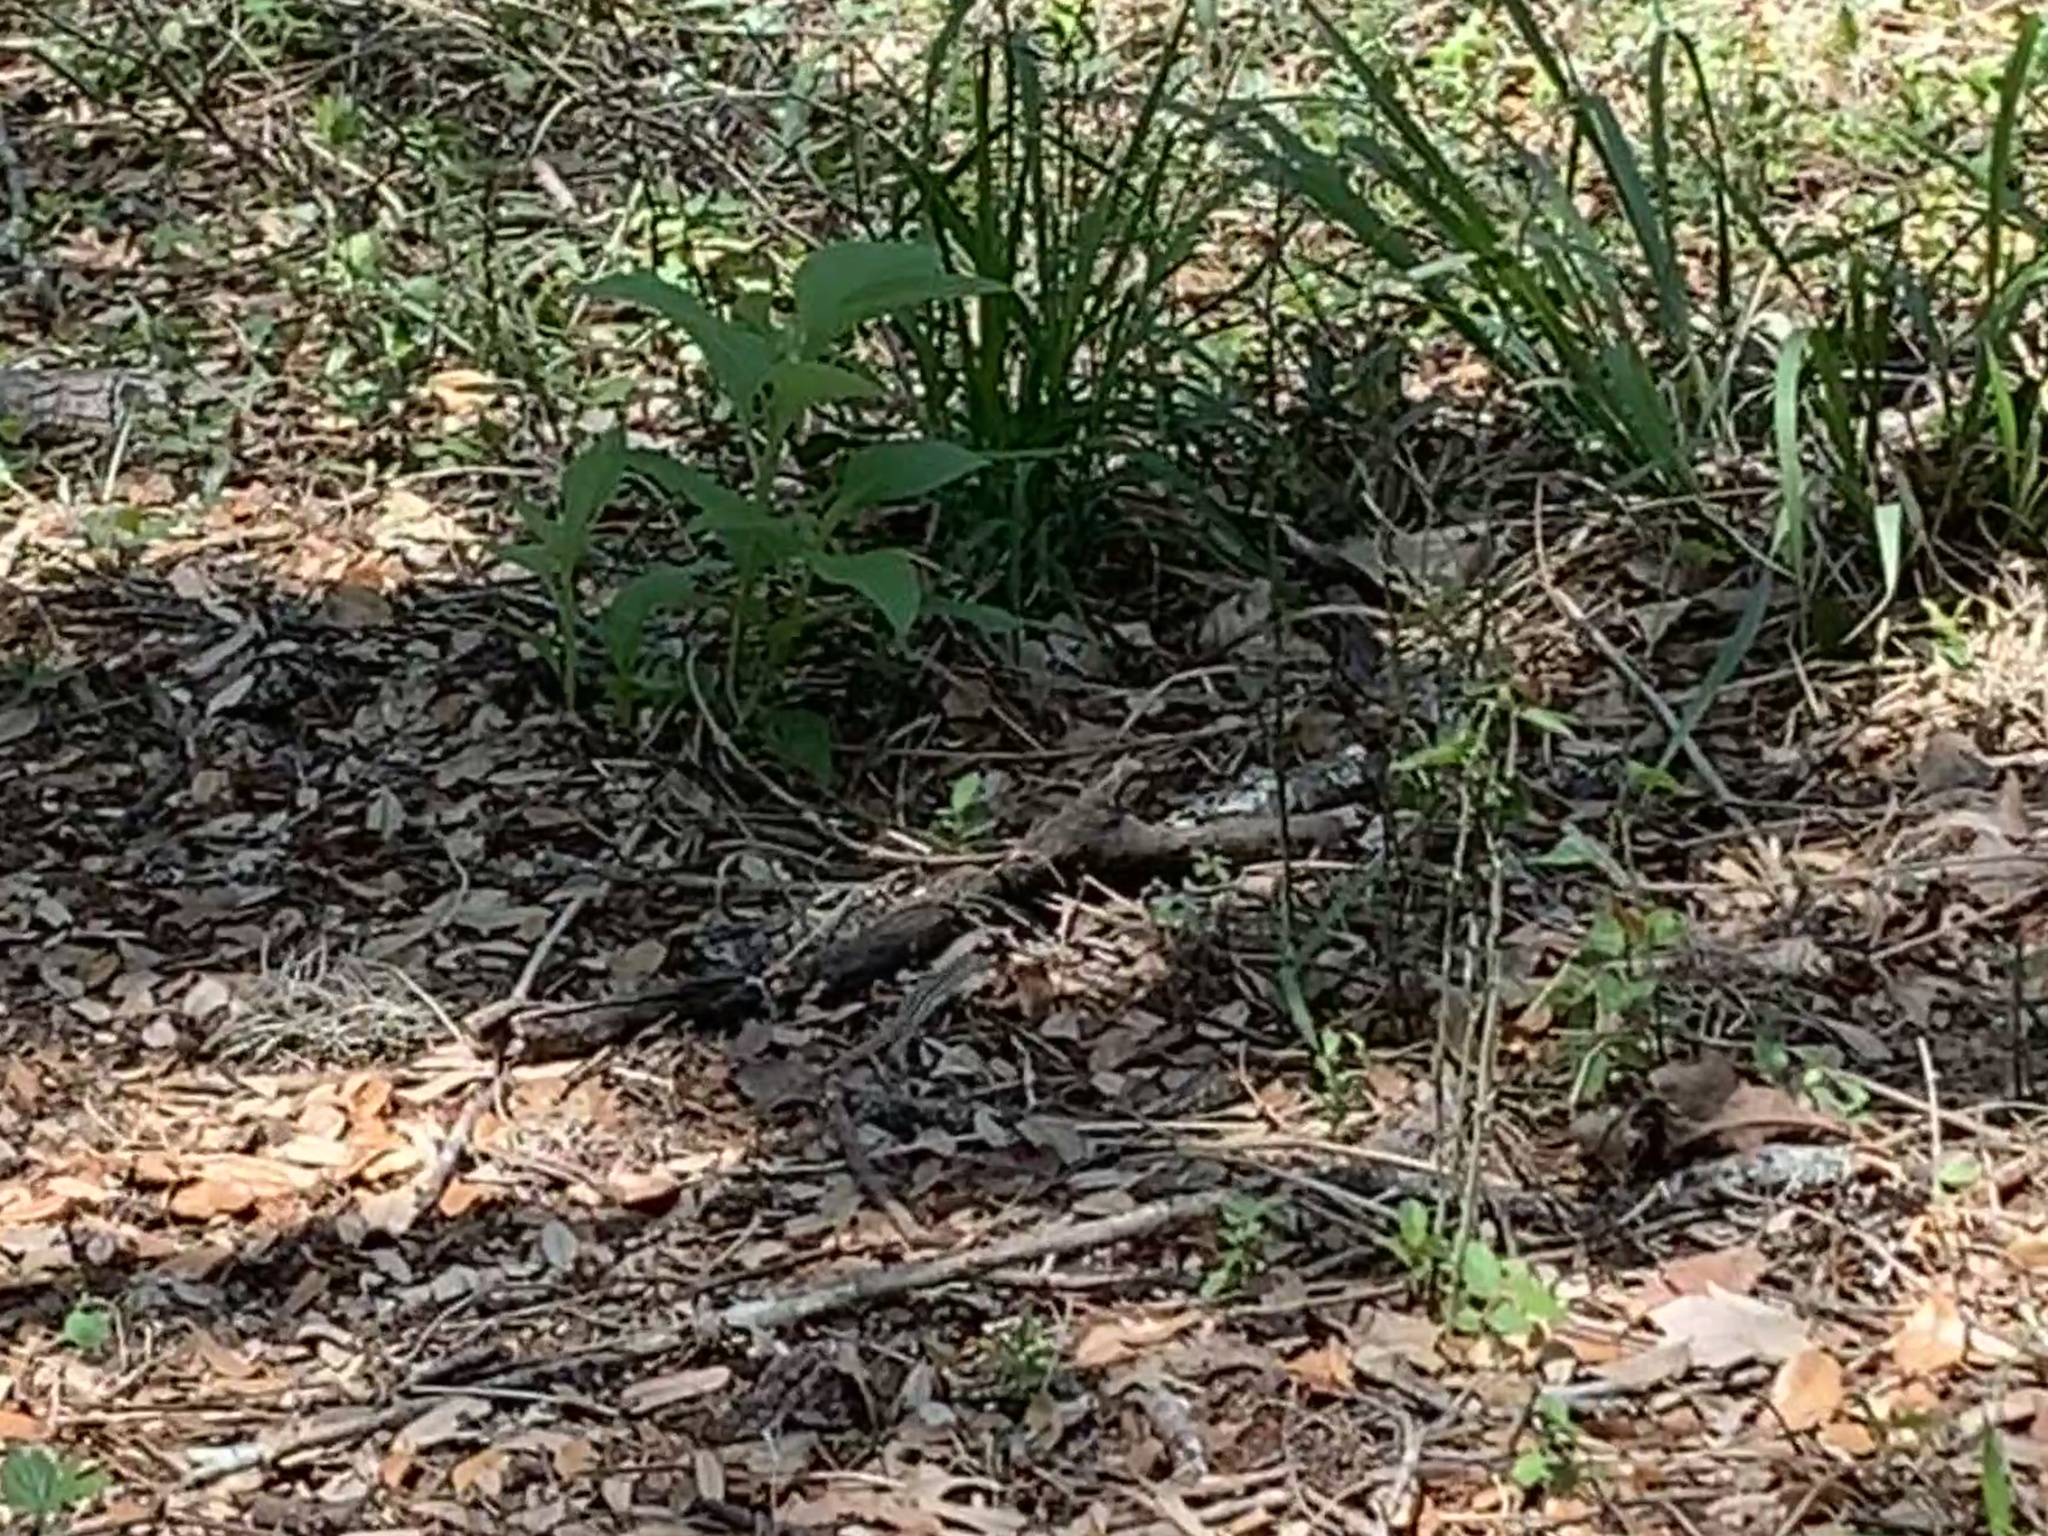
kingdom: Animalia
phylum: Chordata
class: Squamata
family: Teiidae
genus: Aspidoscelis
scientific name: Aspidoscelis gularis
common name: Eastern spotted whiptail
